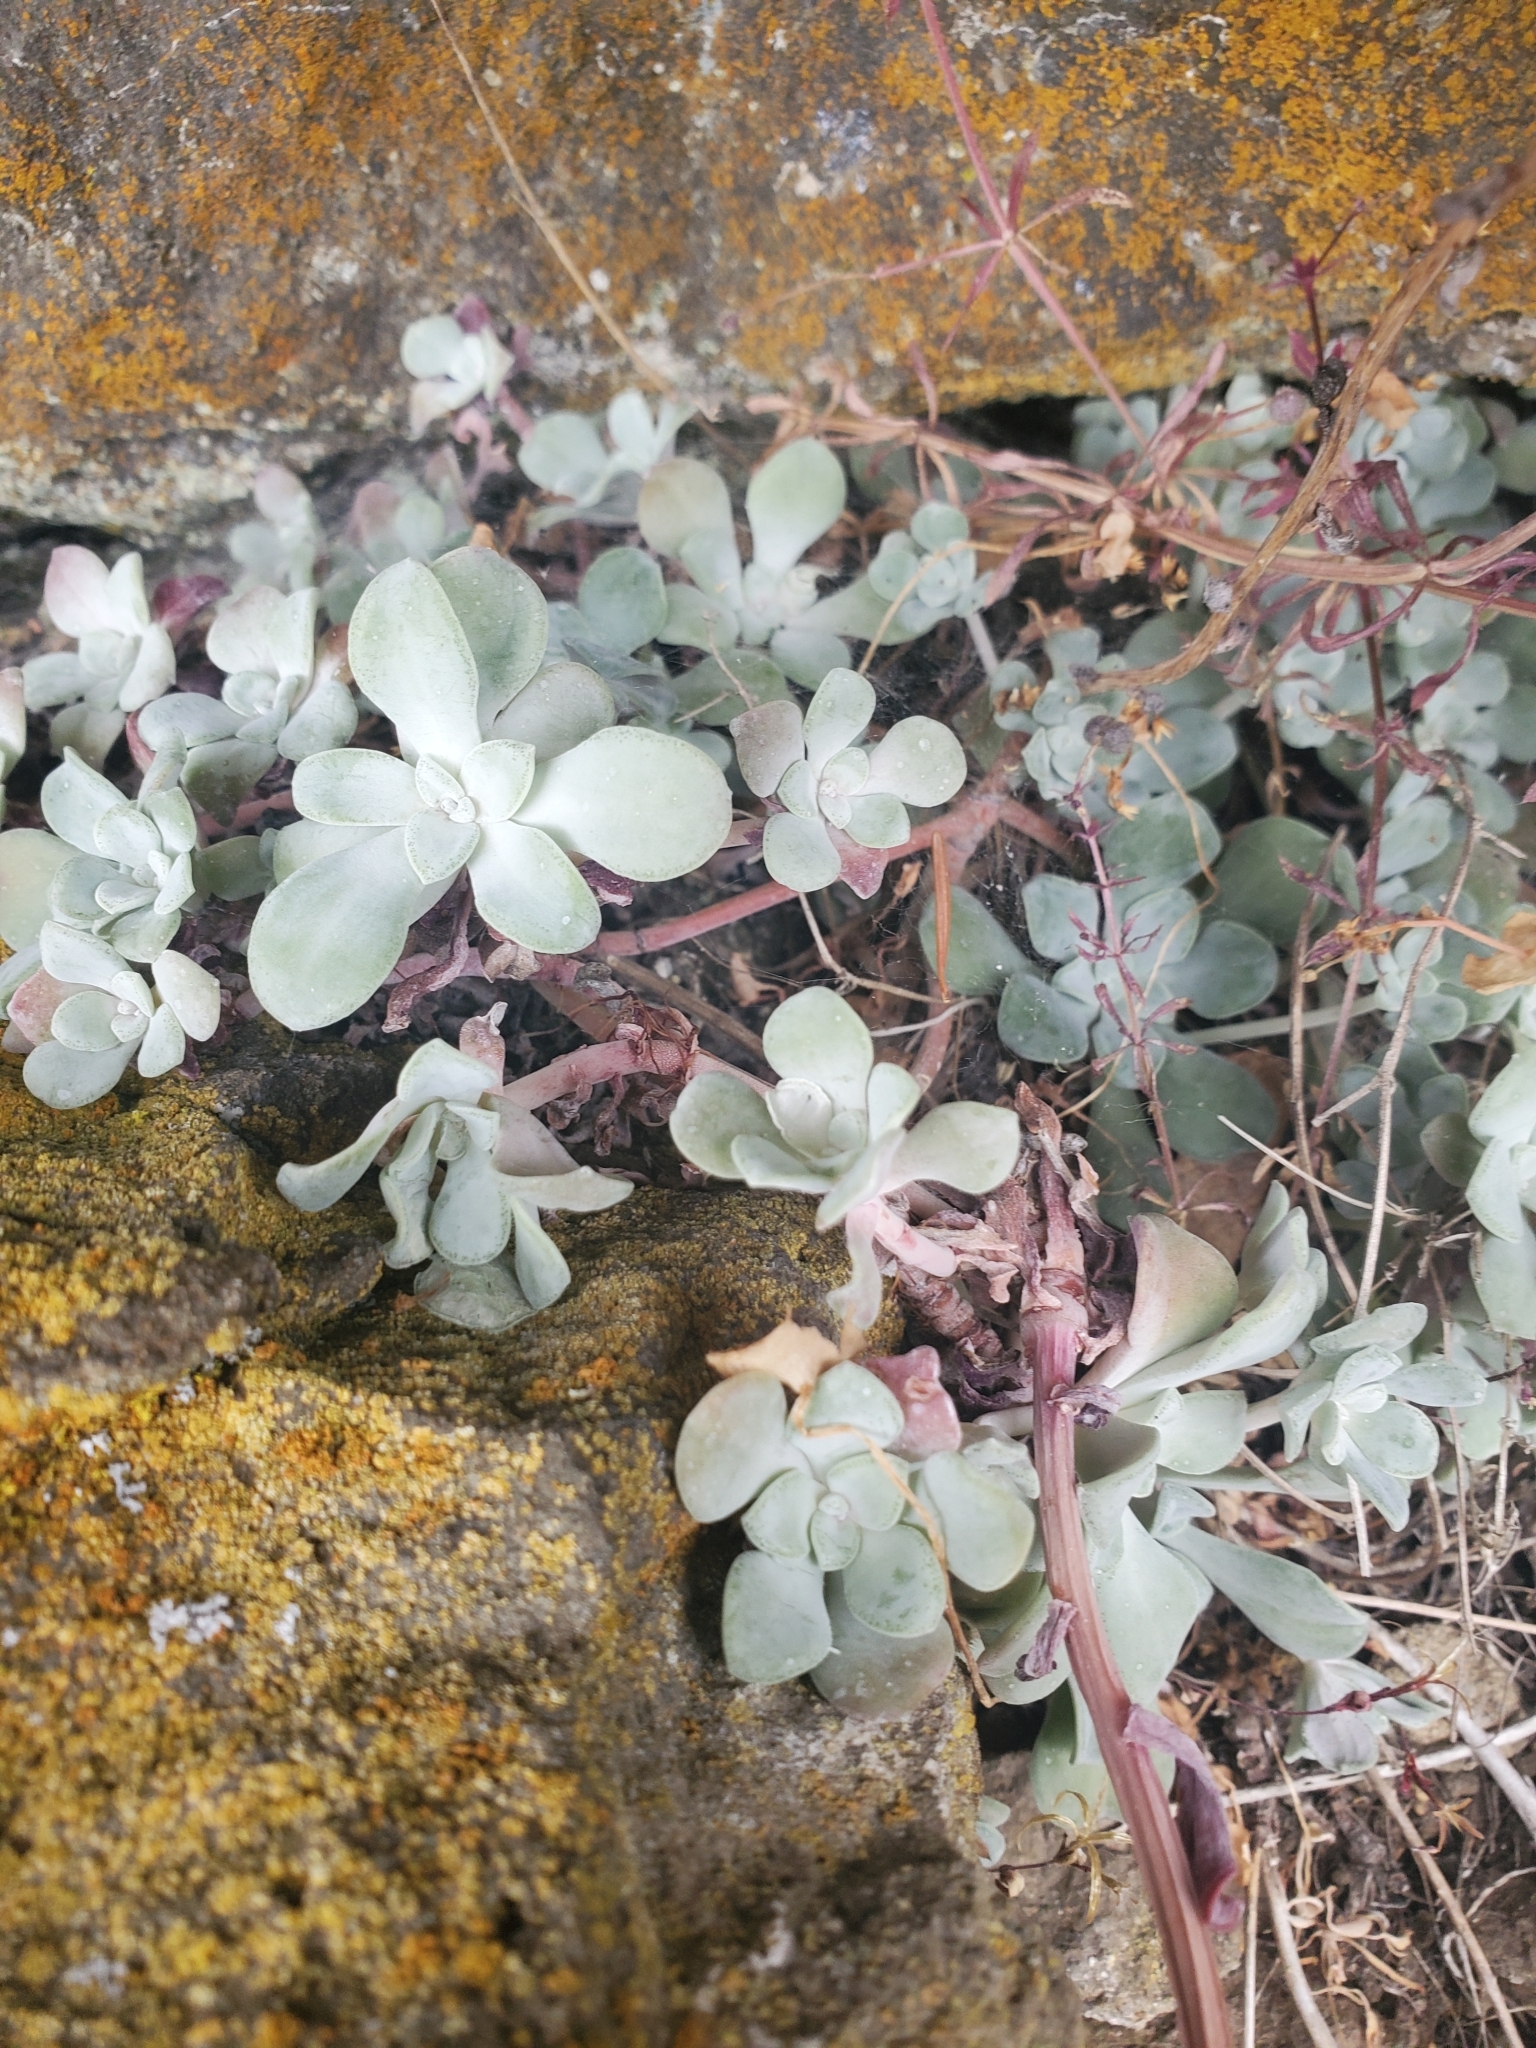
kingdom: Plantae
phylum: Tracheophyta
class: Magnoliopsida
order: Saxifragales
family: Crassulaceae
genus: Sedum
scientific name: Sedum spathulifolium
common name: Colorado stonecrop
